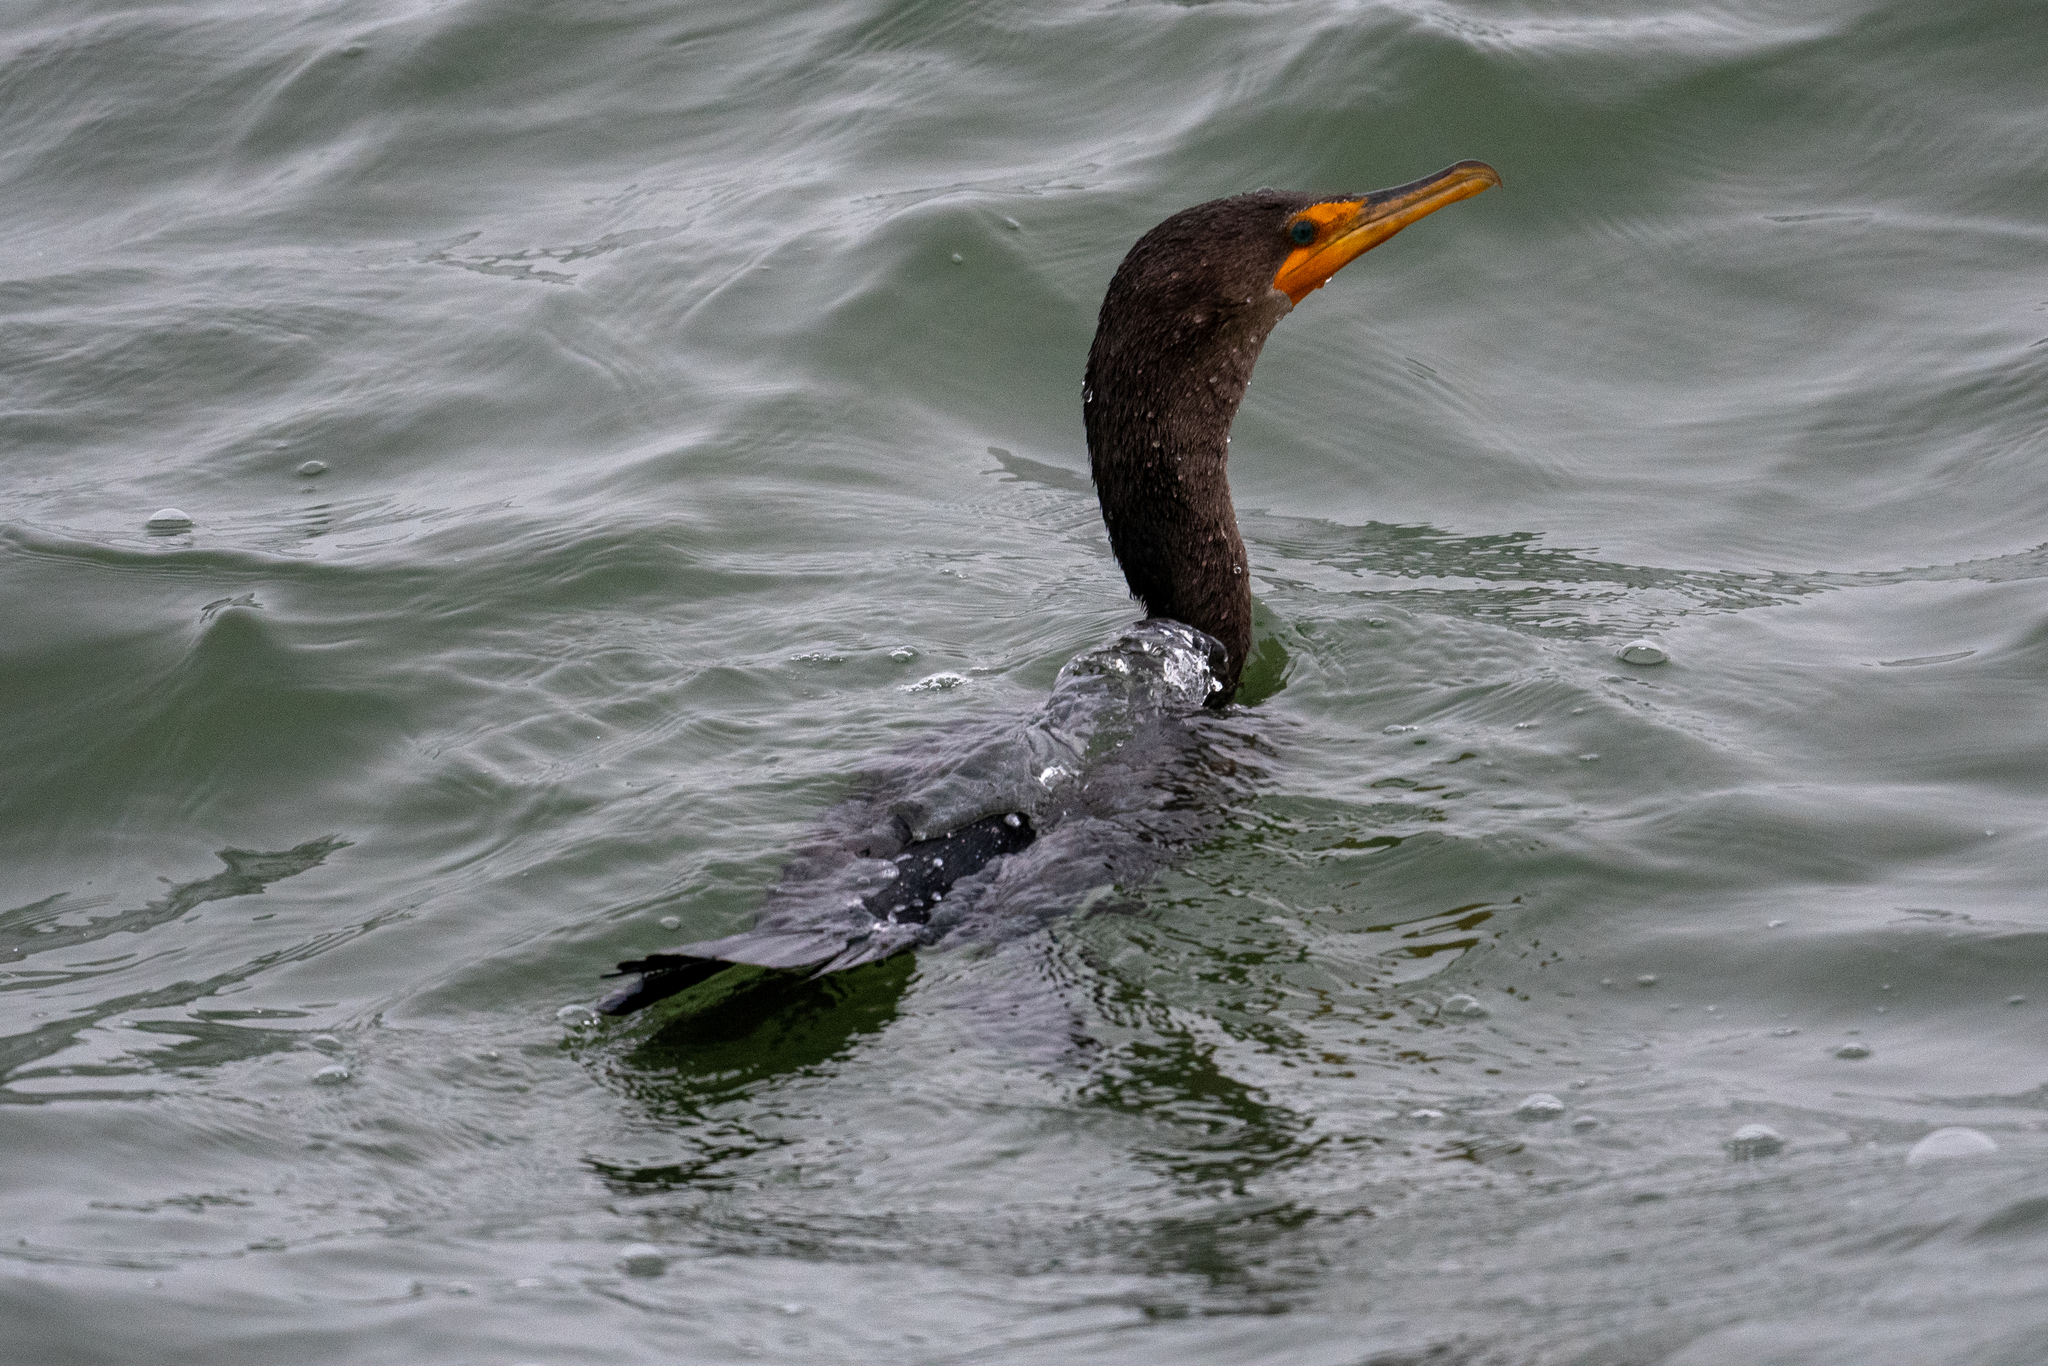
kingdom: Animalia
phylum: Chordata
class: Aves
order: Suliformes
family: Phalacrocoracidae
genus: Phalacrocorax
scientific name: Phalacrocorax auritus
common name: Double-crested cormorant
